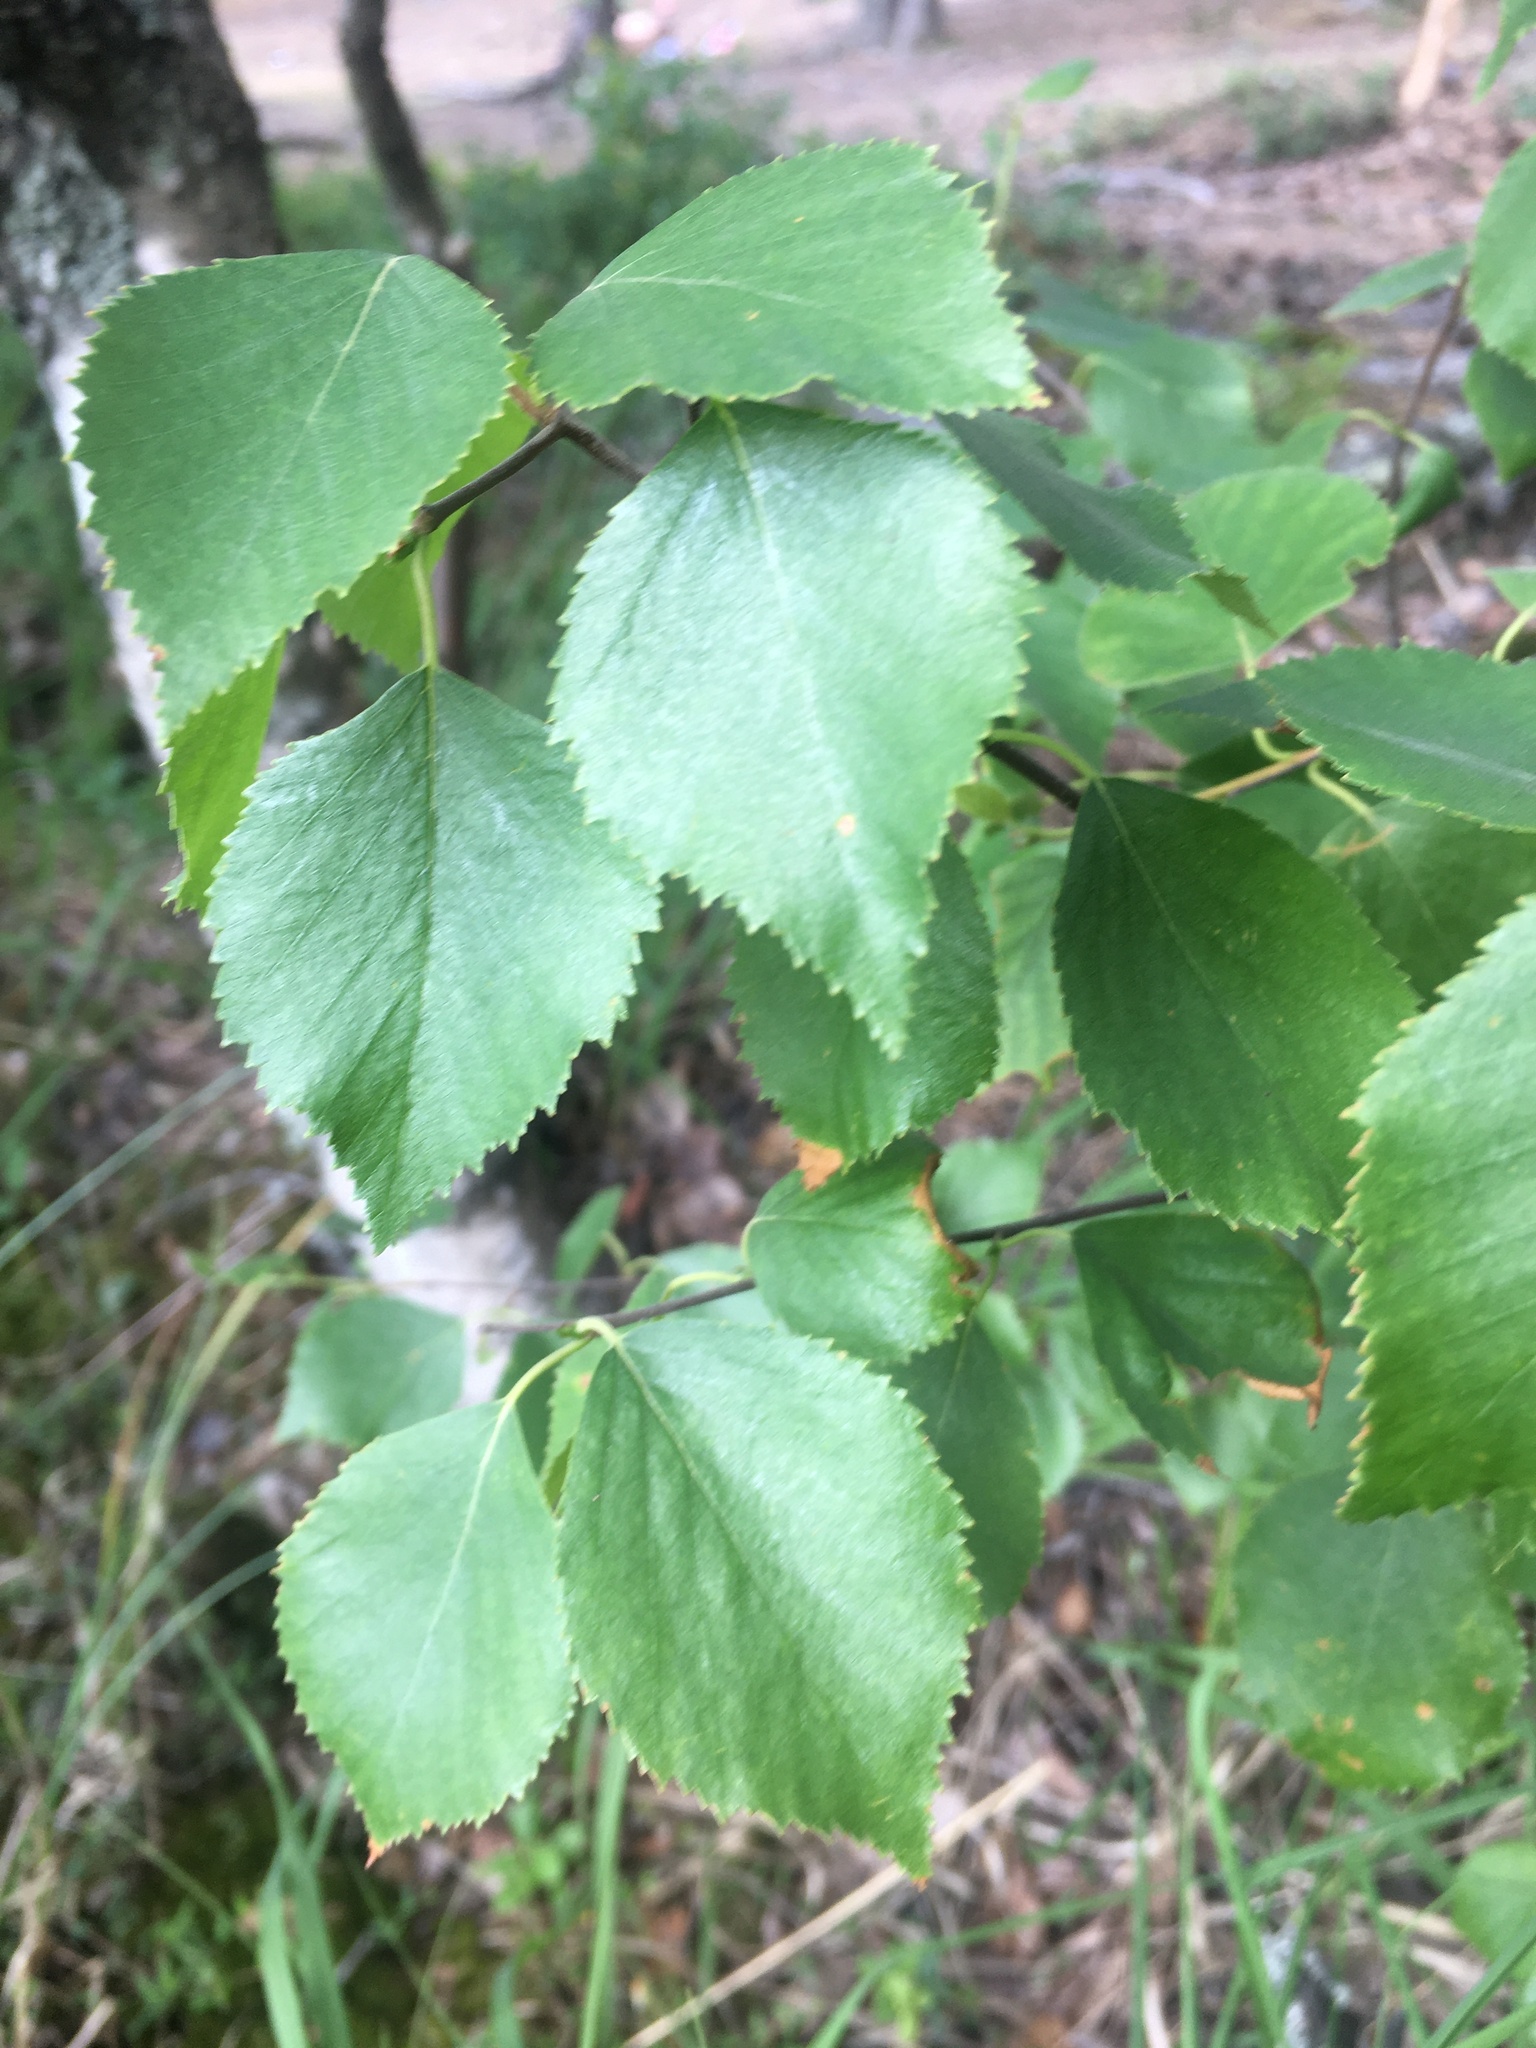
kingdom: Plantae
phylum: Tracheophyta
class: Magnoliopsida
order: Fagales
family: Betulaceae
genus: Betula
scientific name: Betula pubescens
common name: Downy birch
